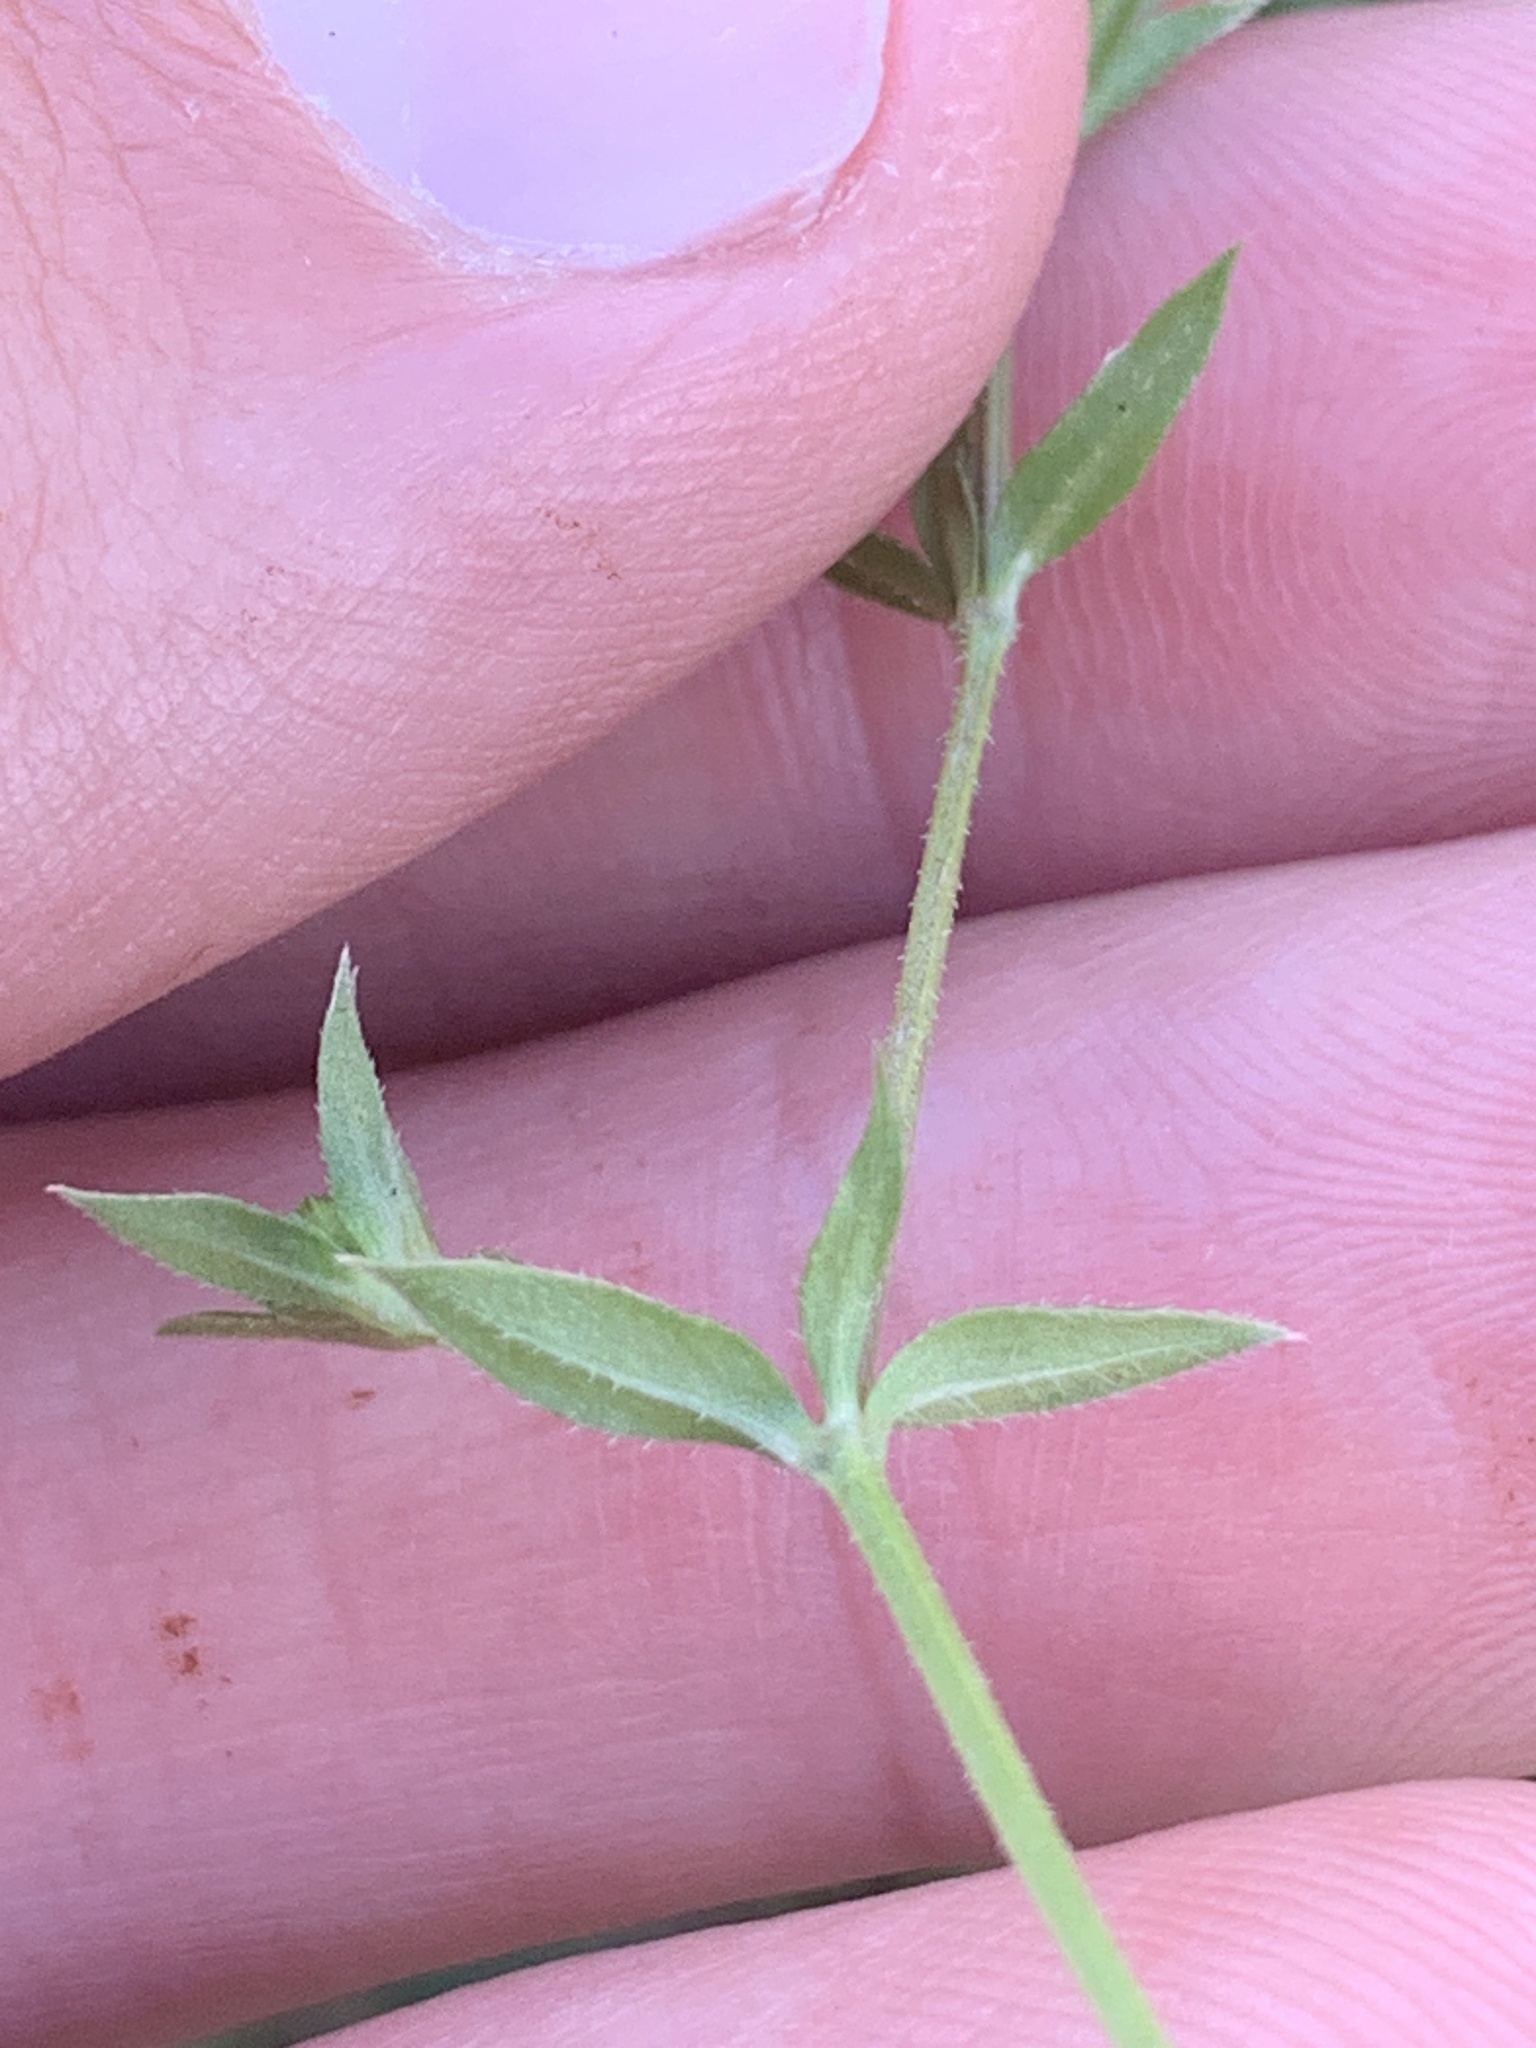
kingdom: Plantae
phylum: Tracheophyta
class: Magnoliopsida
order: Gentianales
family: Rubiaceae
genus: Sherardia
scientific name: Sherardia arvensis
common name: Field madder
